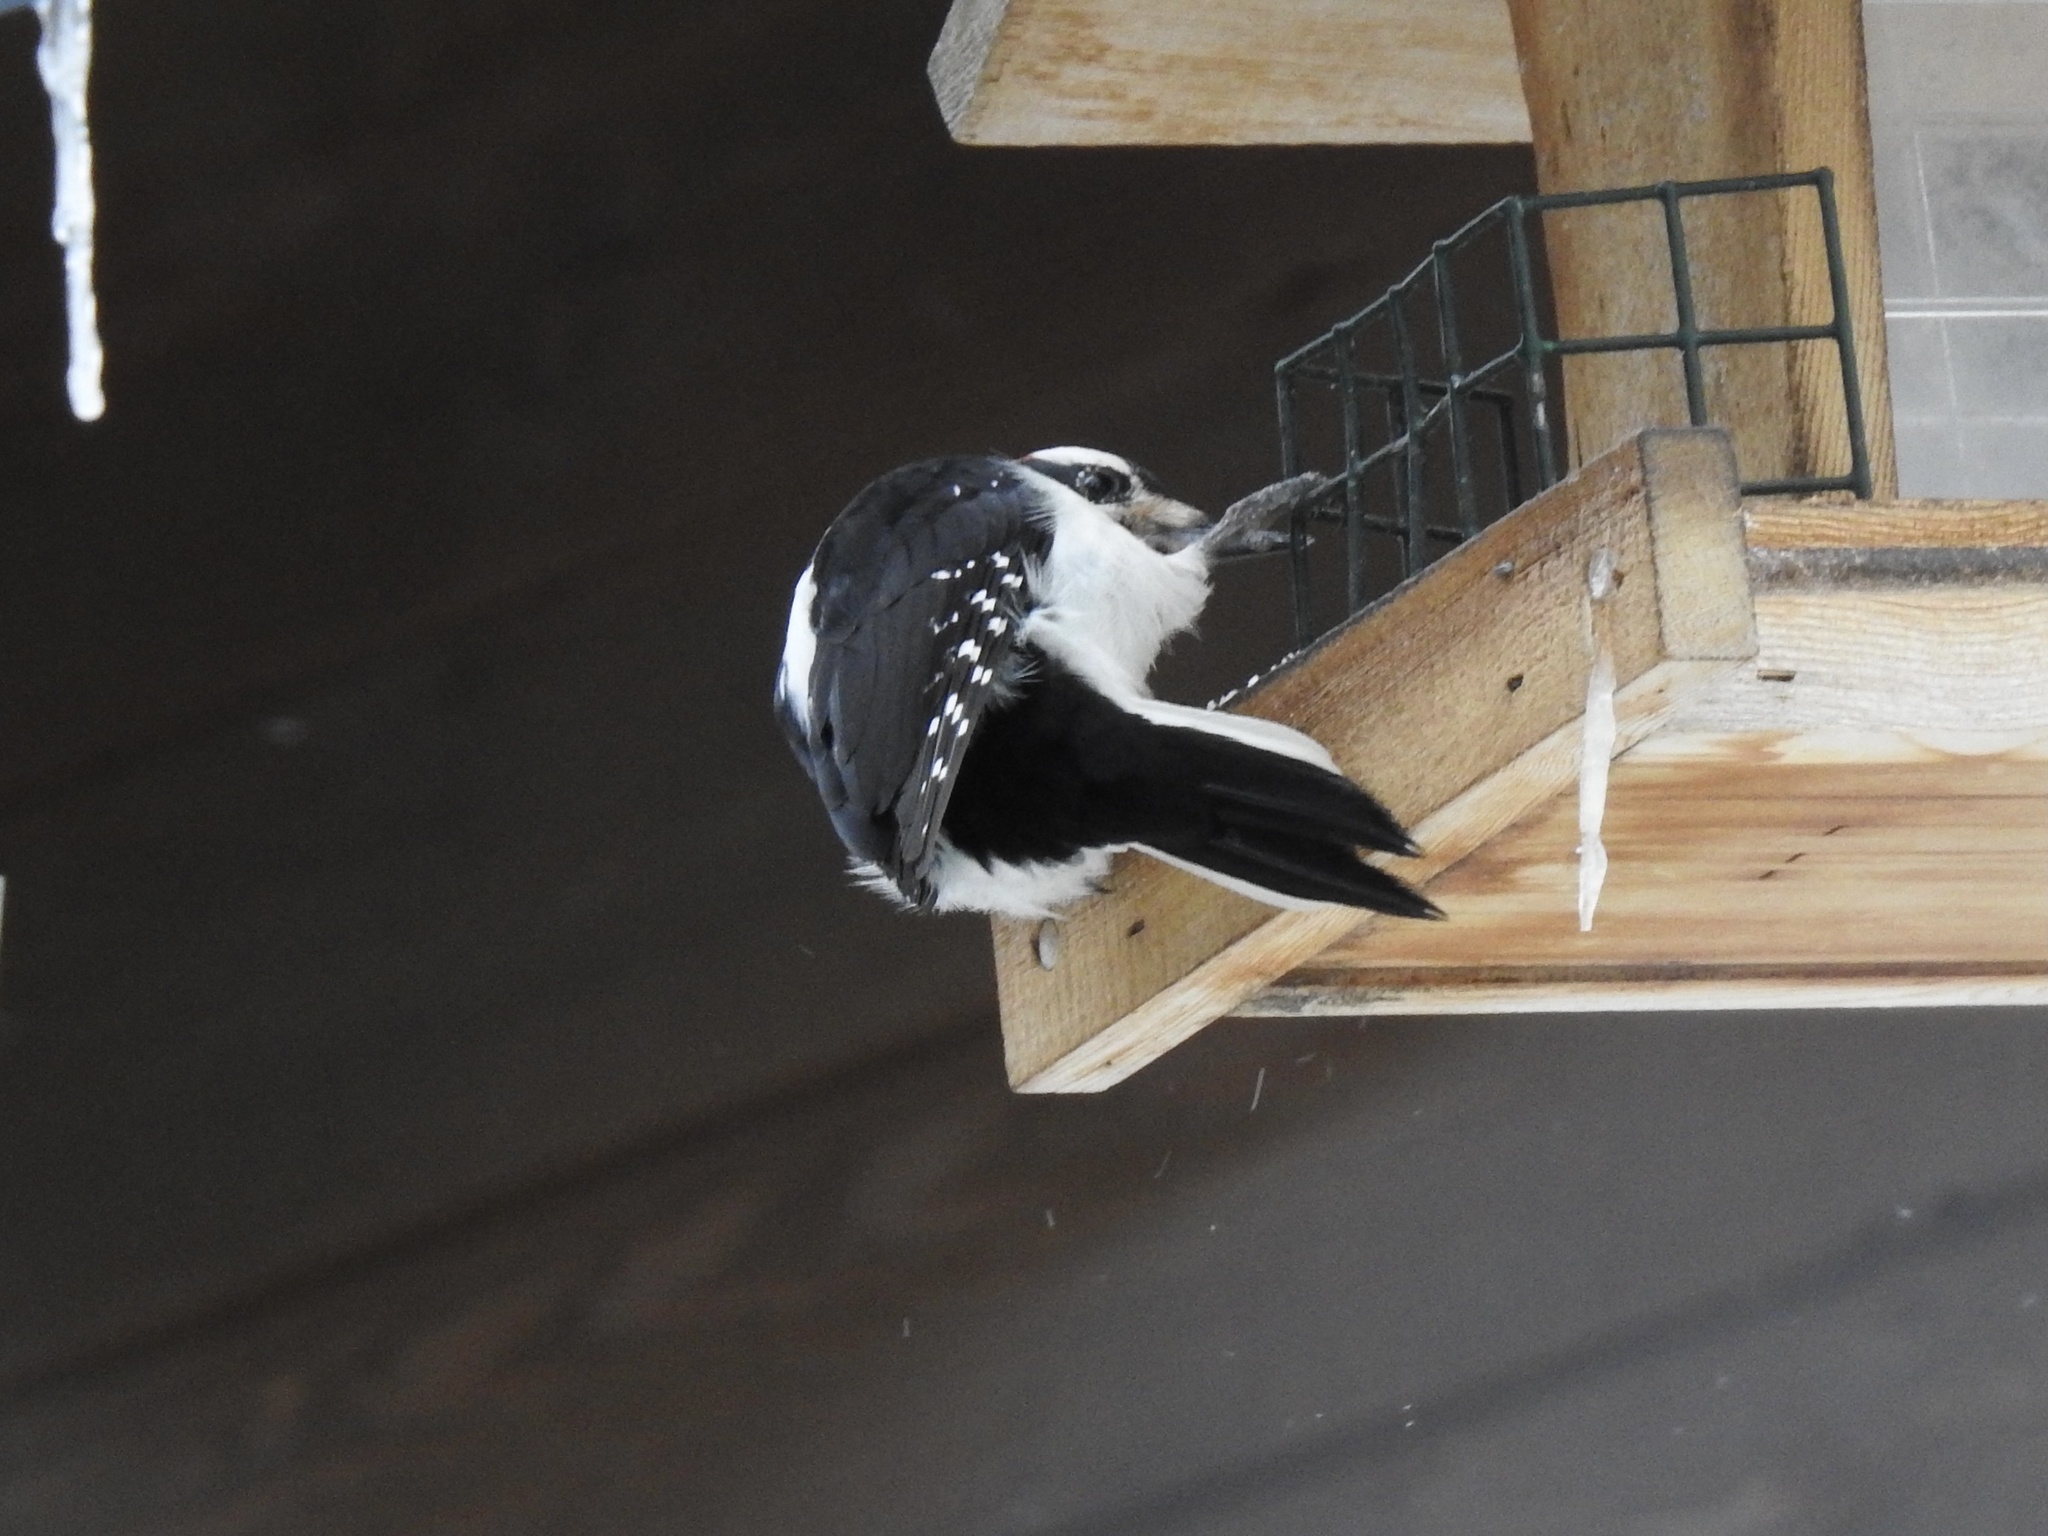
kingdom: Animalia
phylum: Chordata
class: Aves
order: Piciformes
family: Picidae
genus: Dryobates
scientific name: Dryobates pubescens
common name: Downy woodpecker
